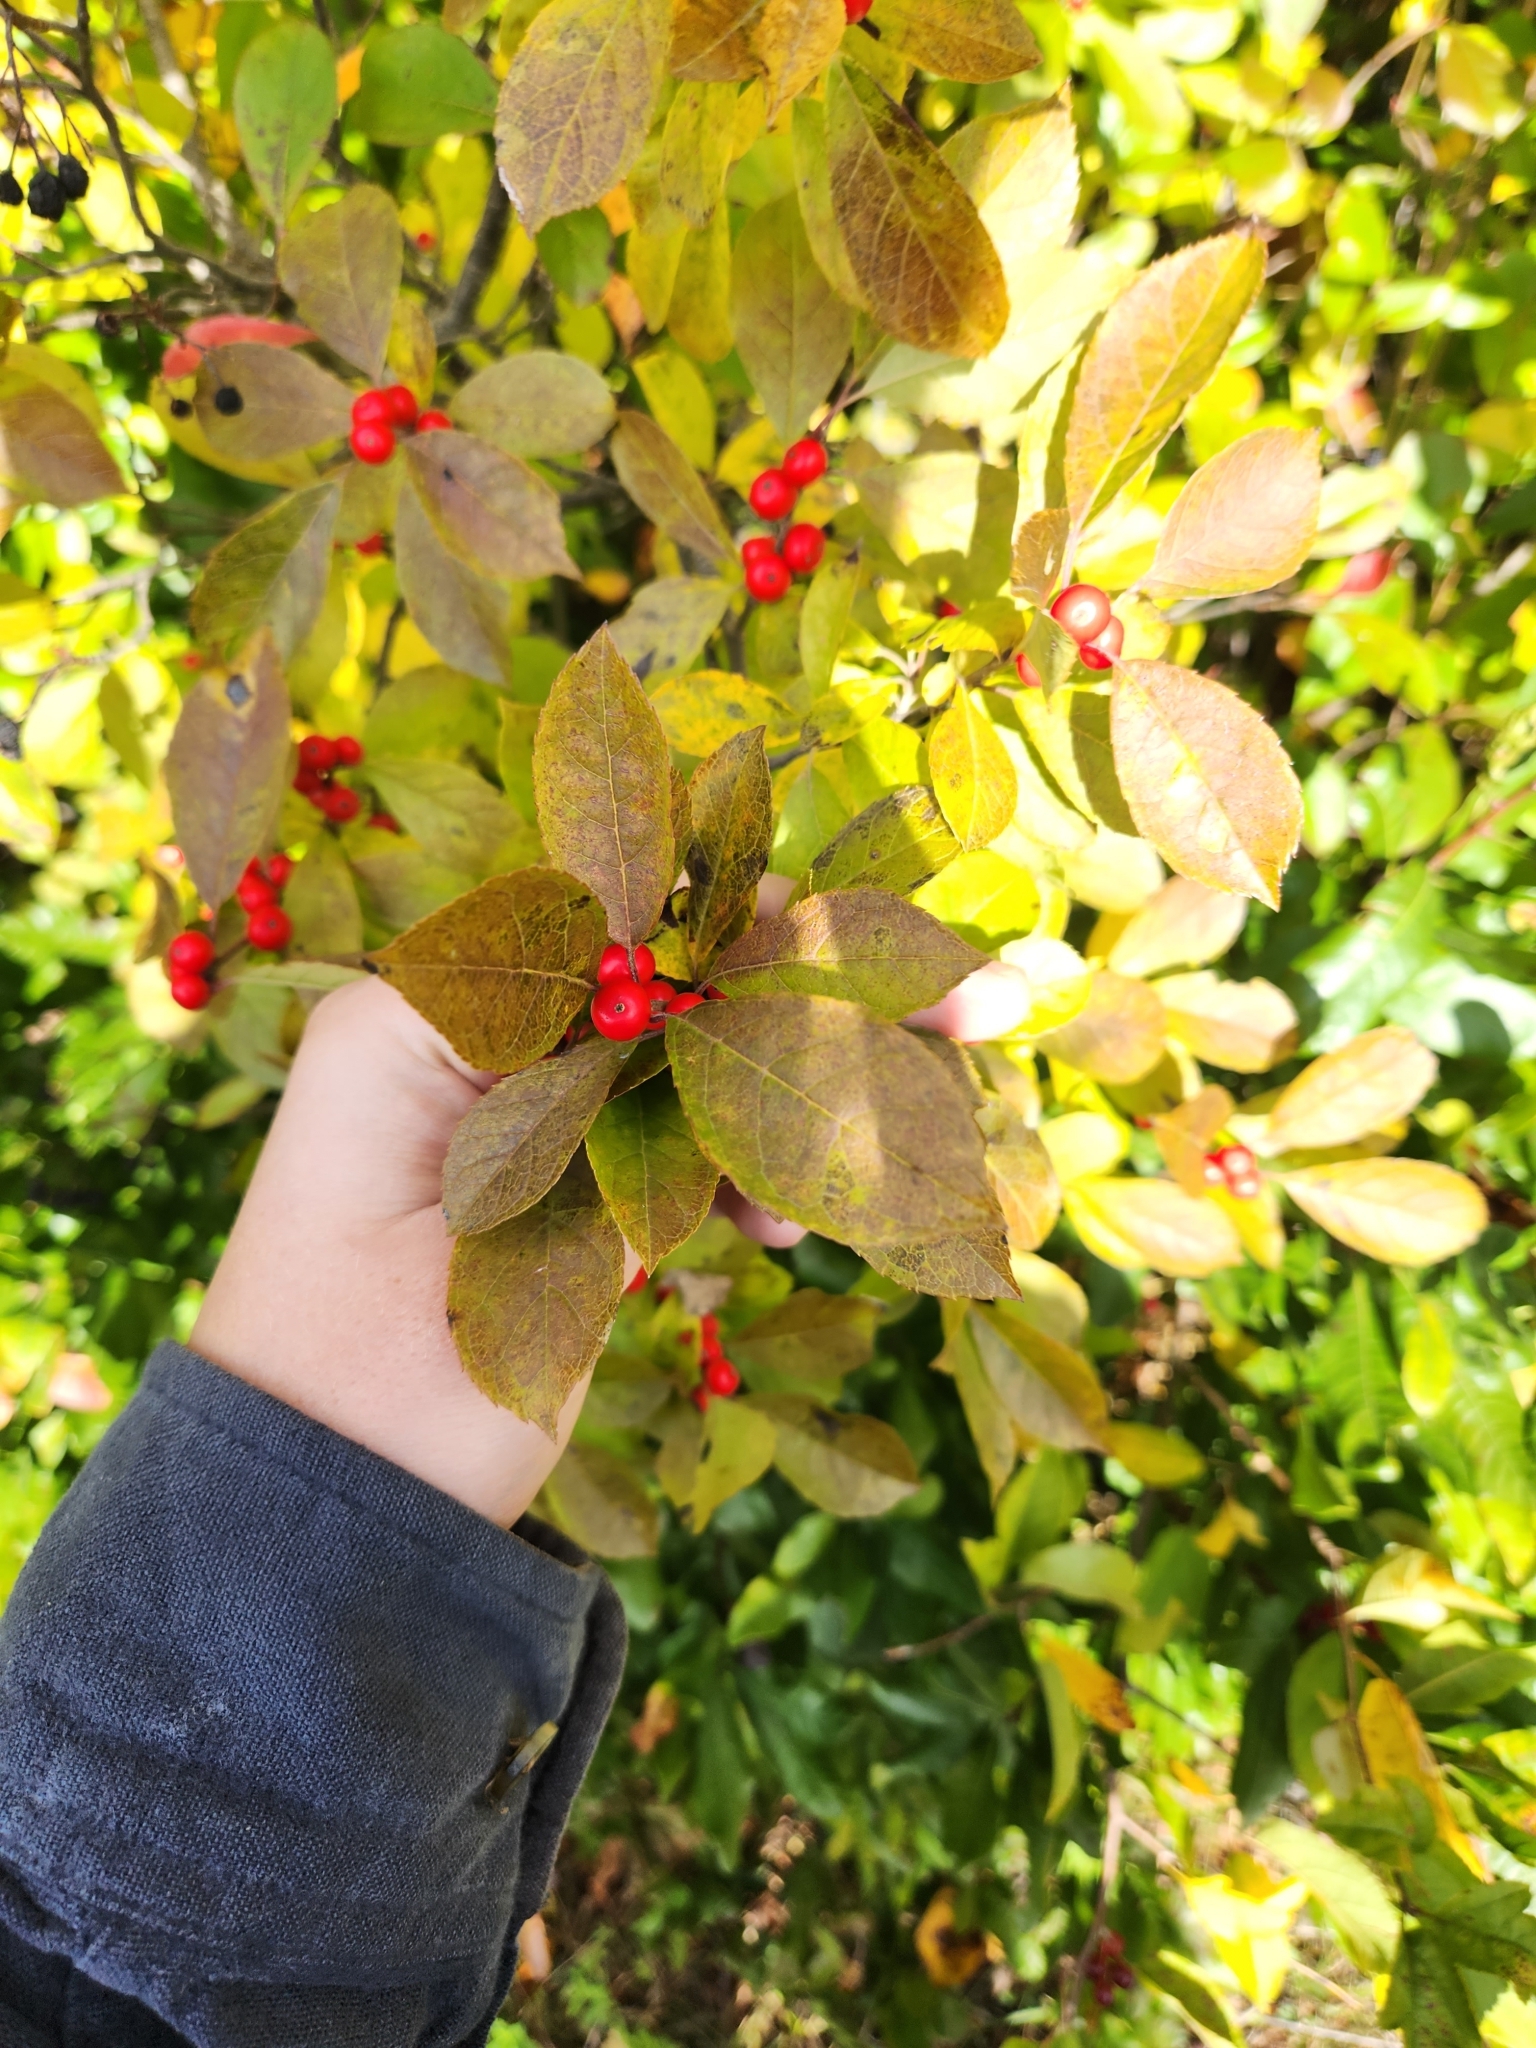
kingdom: Plantae
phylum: Tracheophyta
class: Magnoliopsida
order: Aquifoliales
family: Aquifoliaceae
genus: Ilex
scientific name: Ilex verticillata
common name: Virginia winterberry
